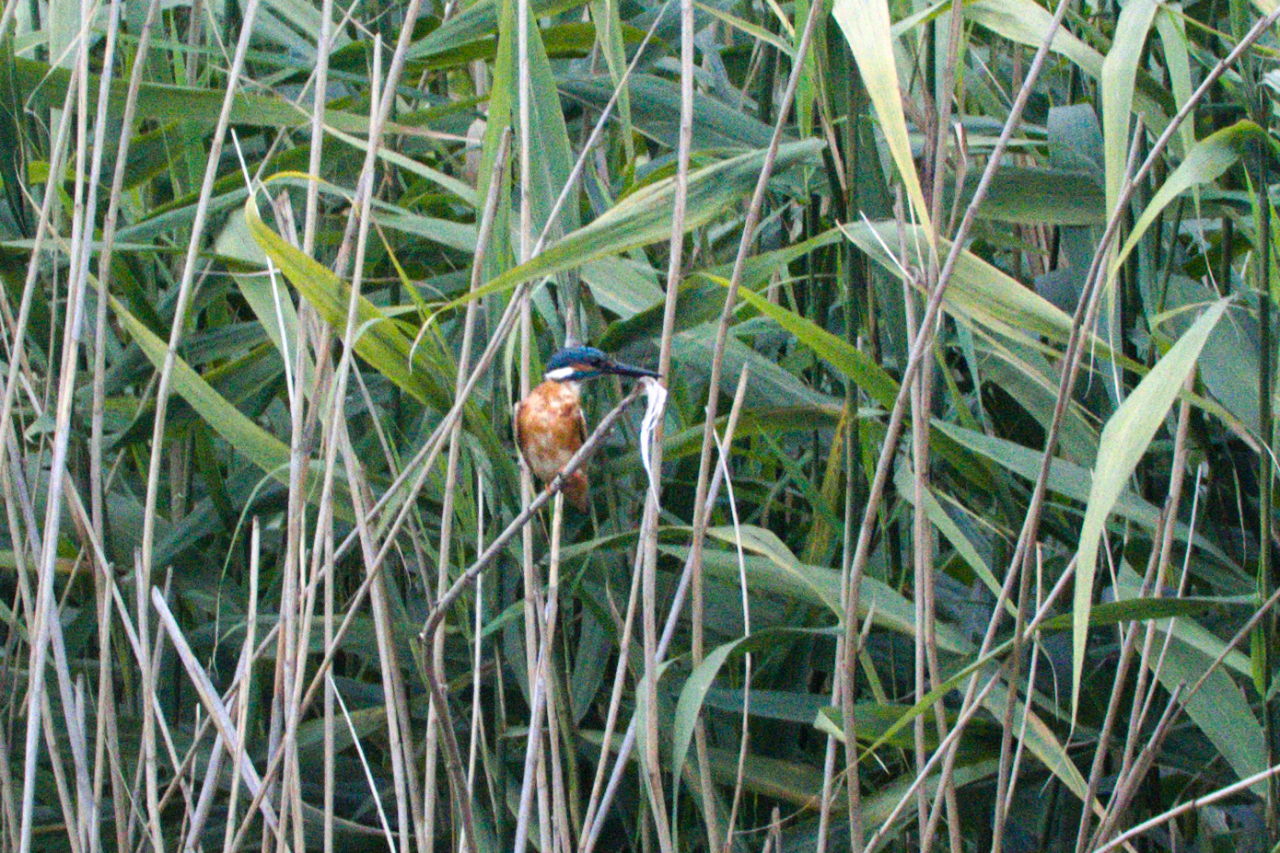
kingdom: Animalia
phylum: Chordata
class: Aves
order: Coraciiformes
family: Alcedinidae
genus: Alcedo
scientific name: Alcedo atthis
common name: Common kingfisher
